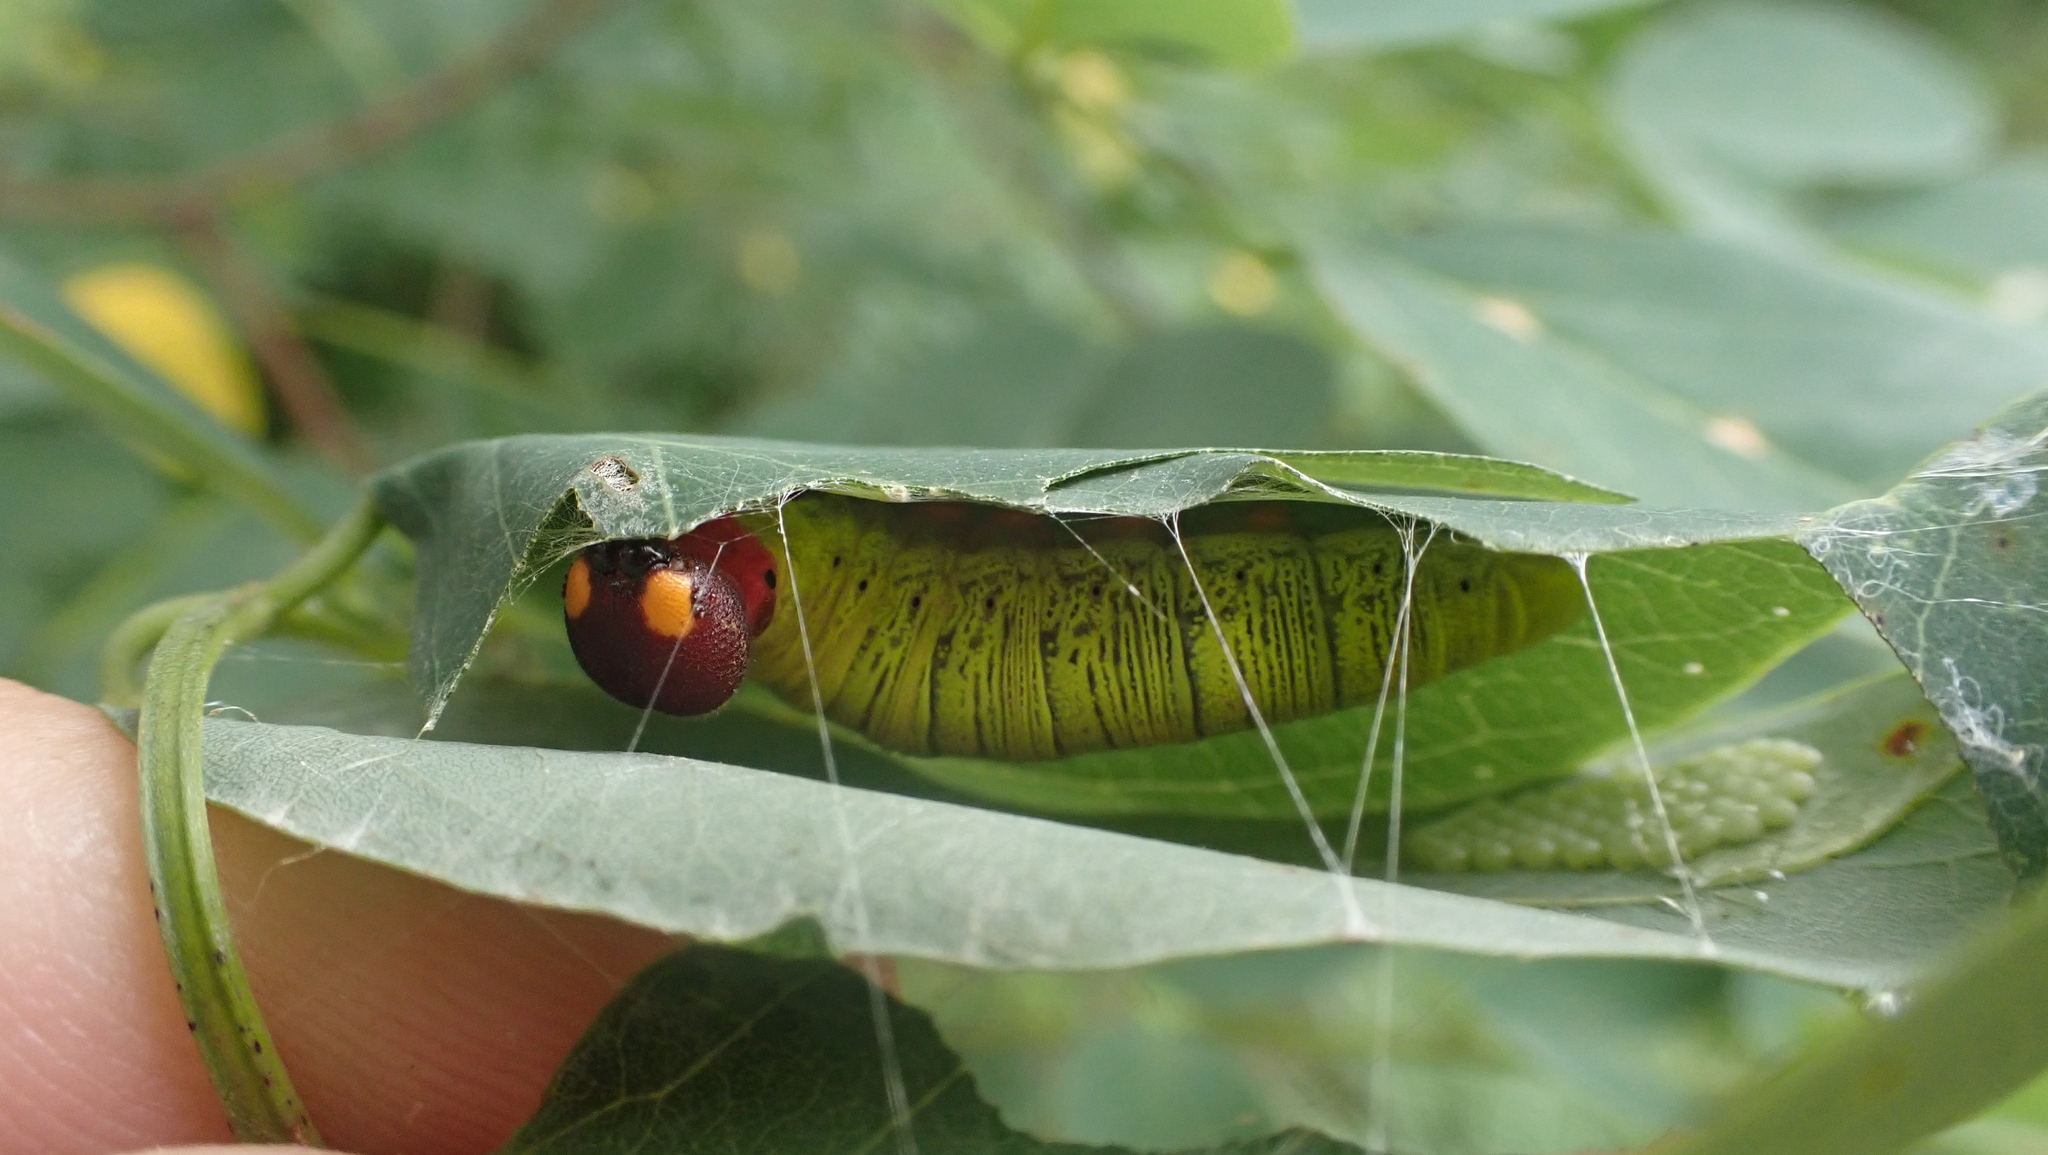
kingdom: Animalia
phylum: Arthropoda
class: Insecta
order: Lepidoptera
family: Hesperiidae
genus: Epargyreus
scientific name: Epargyreus clarus
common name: Silver-spotted skipper
